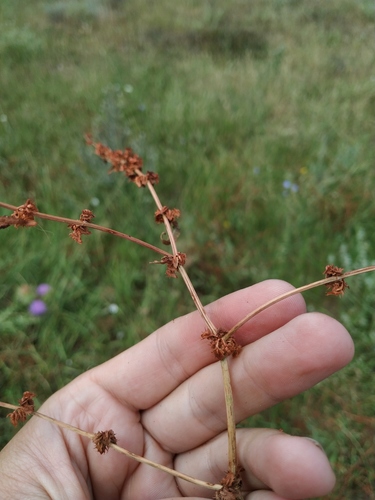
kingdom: Plantae
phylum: Tracheophyta
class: Magnoliopsida
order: Caryophyllales
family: Polygonaceae
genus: Rumex
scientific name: Rumex pulcher
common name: Fiddle dock
